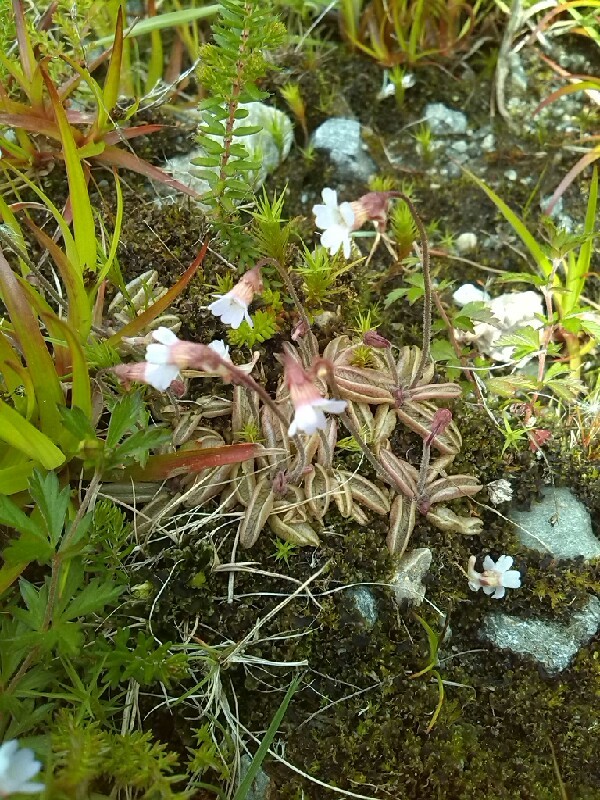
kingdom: Plantae
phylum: Tracheophyta
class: Magnoliopsida
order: Lamiales
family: Lentibulariaceae
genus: Pinguicula
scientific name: Pinguicula lusitanica
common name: Pale butterwort
